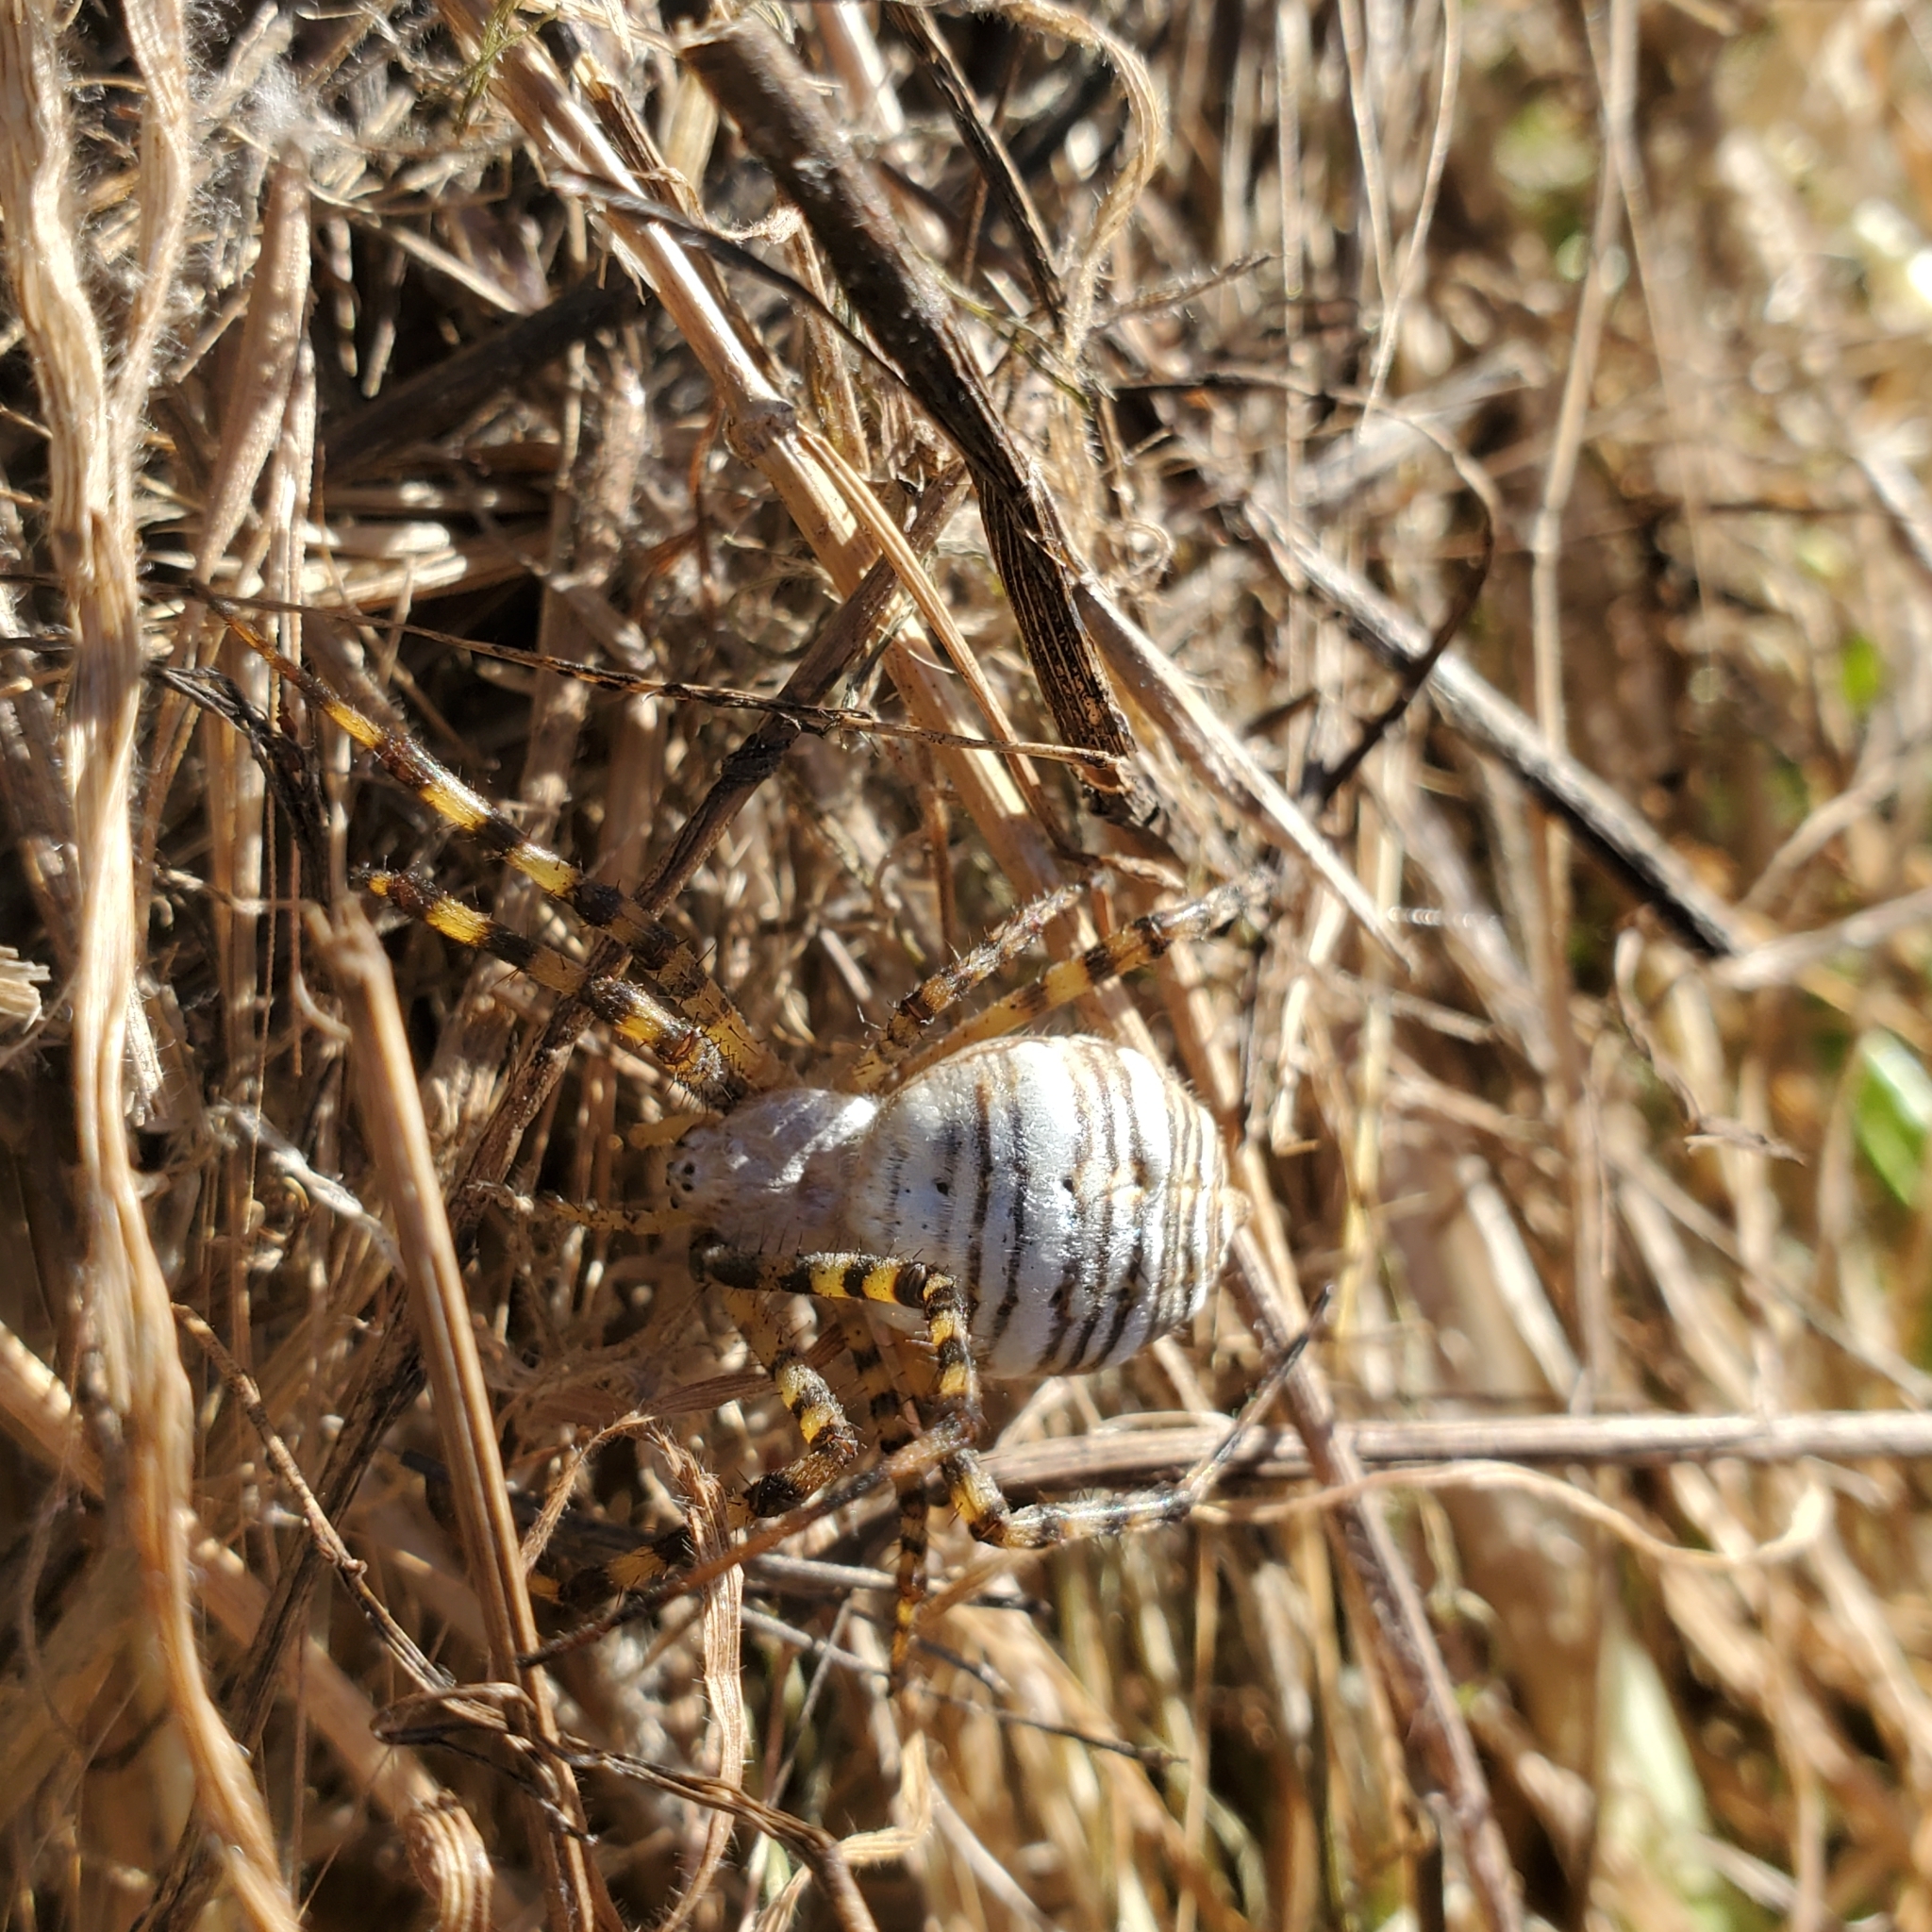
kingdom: Animalia
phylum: Arthropoda
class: Arachnida
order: Araneae
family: Araneidae
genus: Argiope
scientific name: Argiope trifasciata
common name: Banded garden spider
